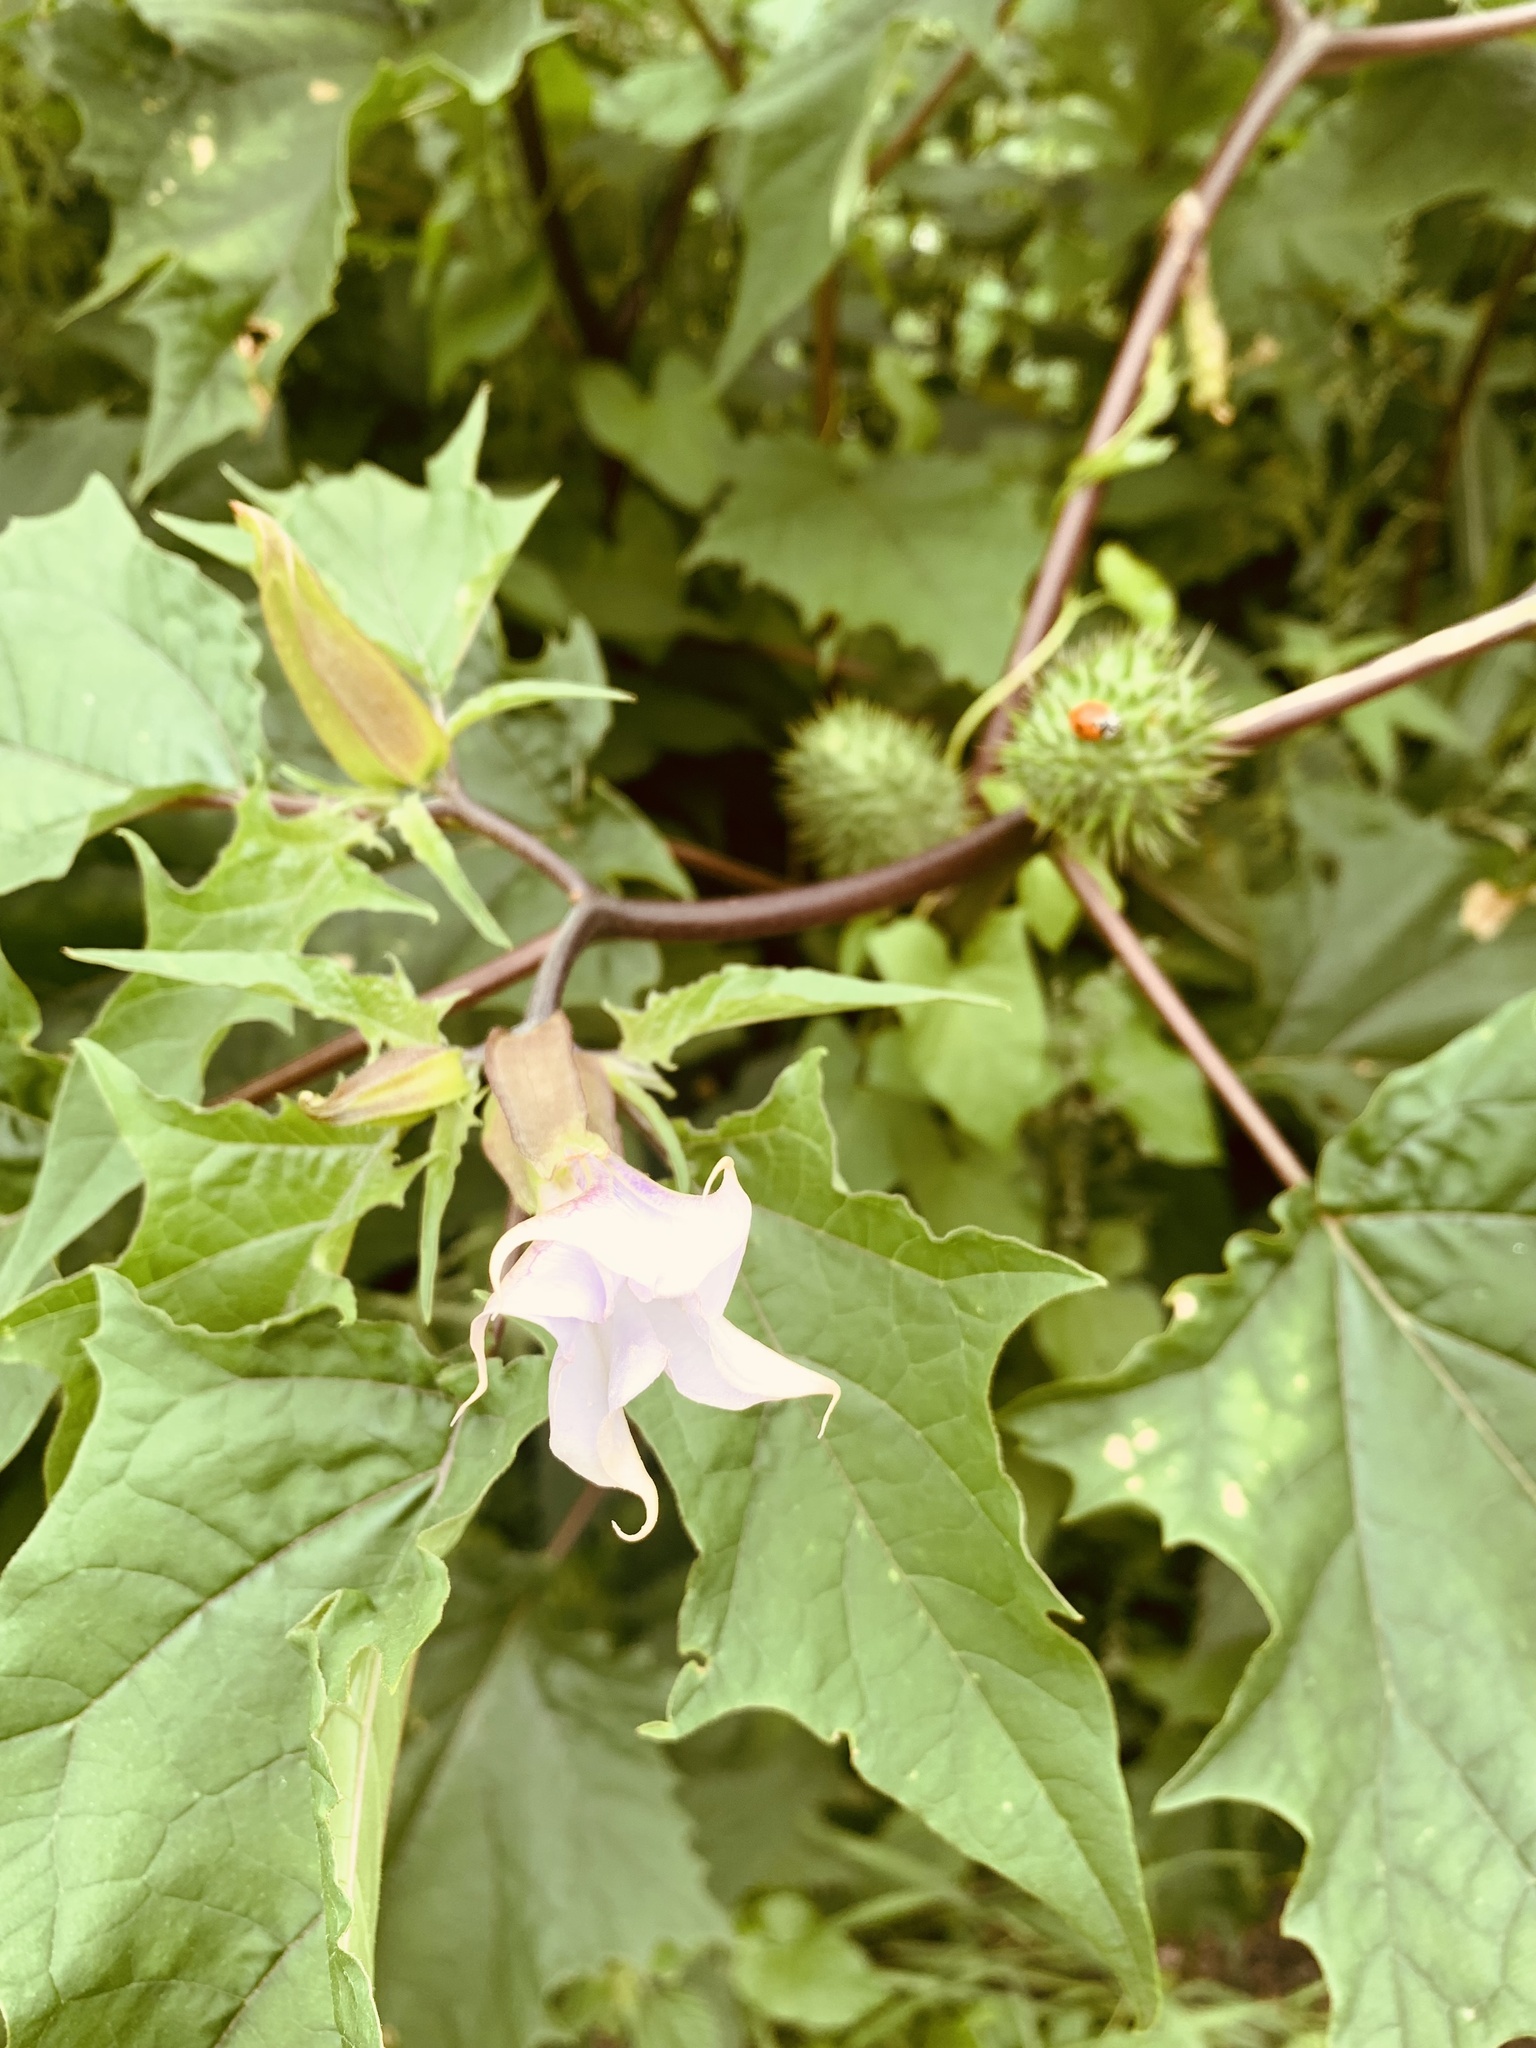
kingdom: Plantae
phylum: Tracheophyta
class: Magnoliopsida
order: Solanales
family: Solanaceae
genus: Datura
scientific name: Datura stramonium
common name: Thorn-apple
